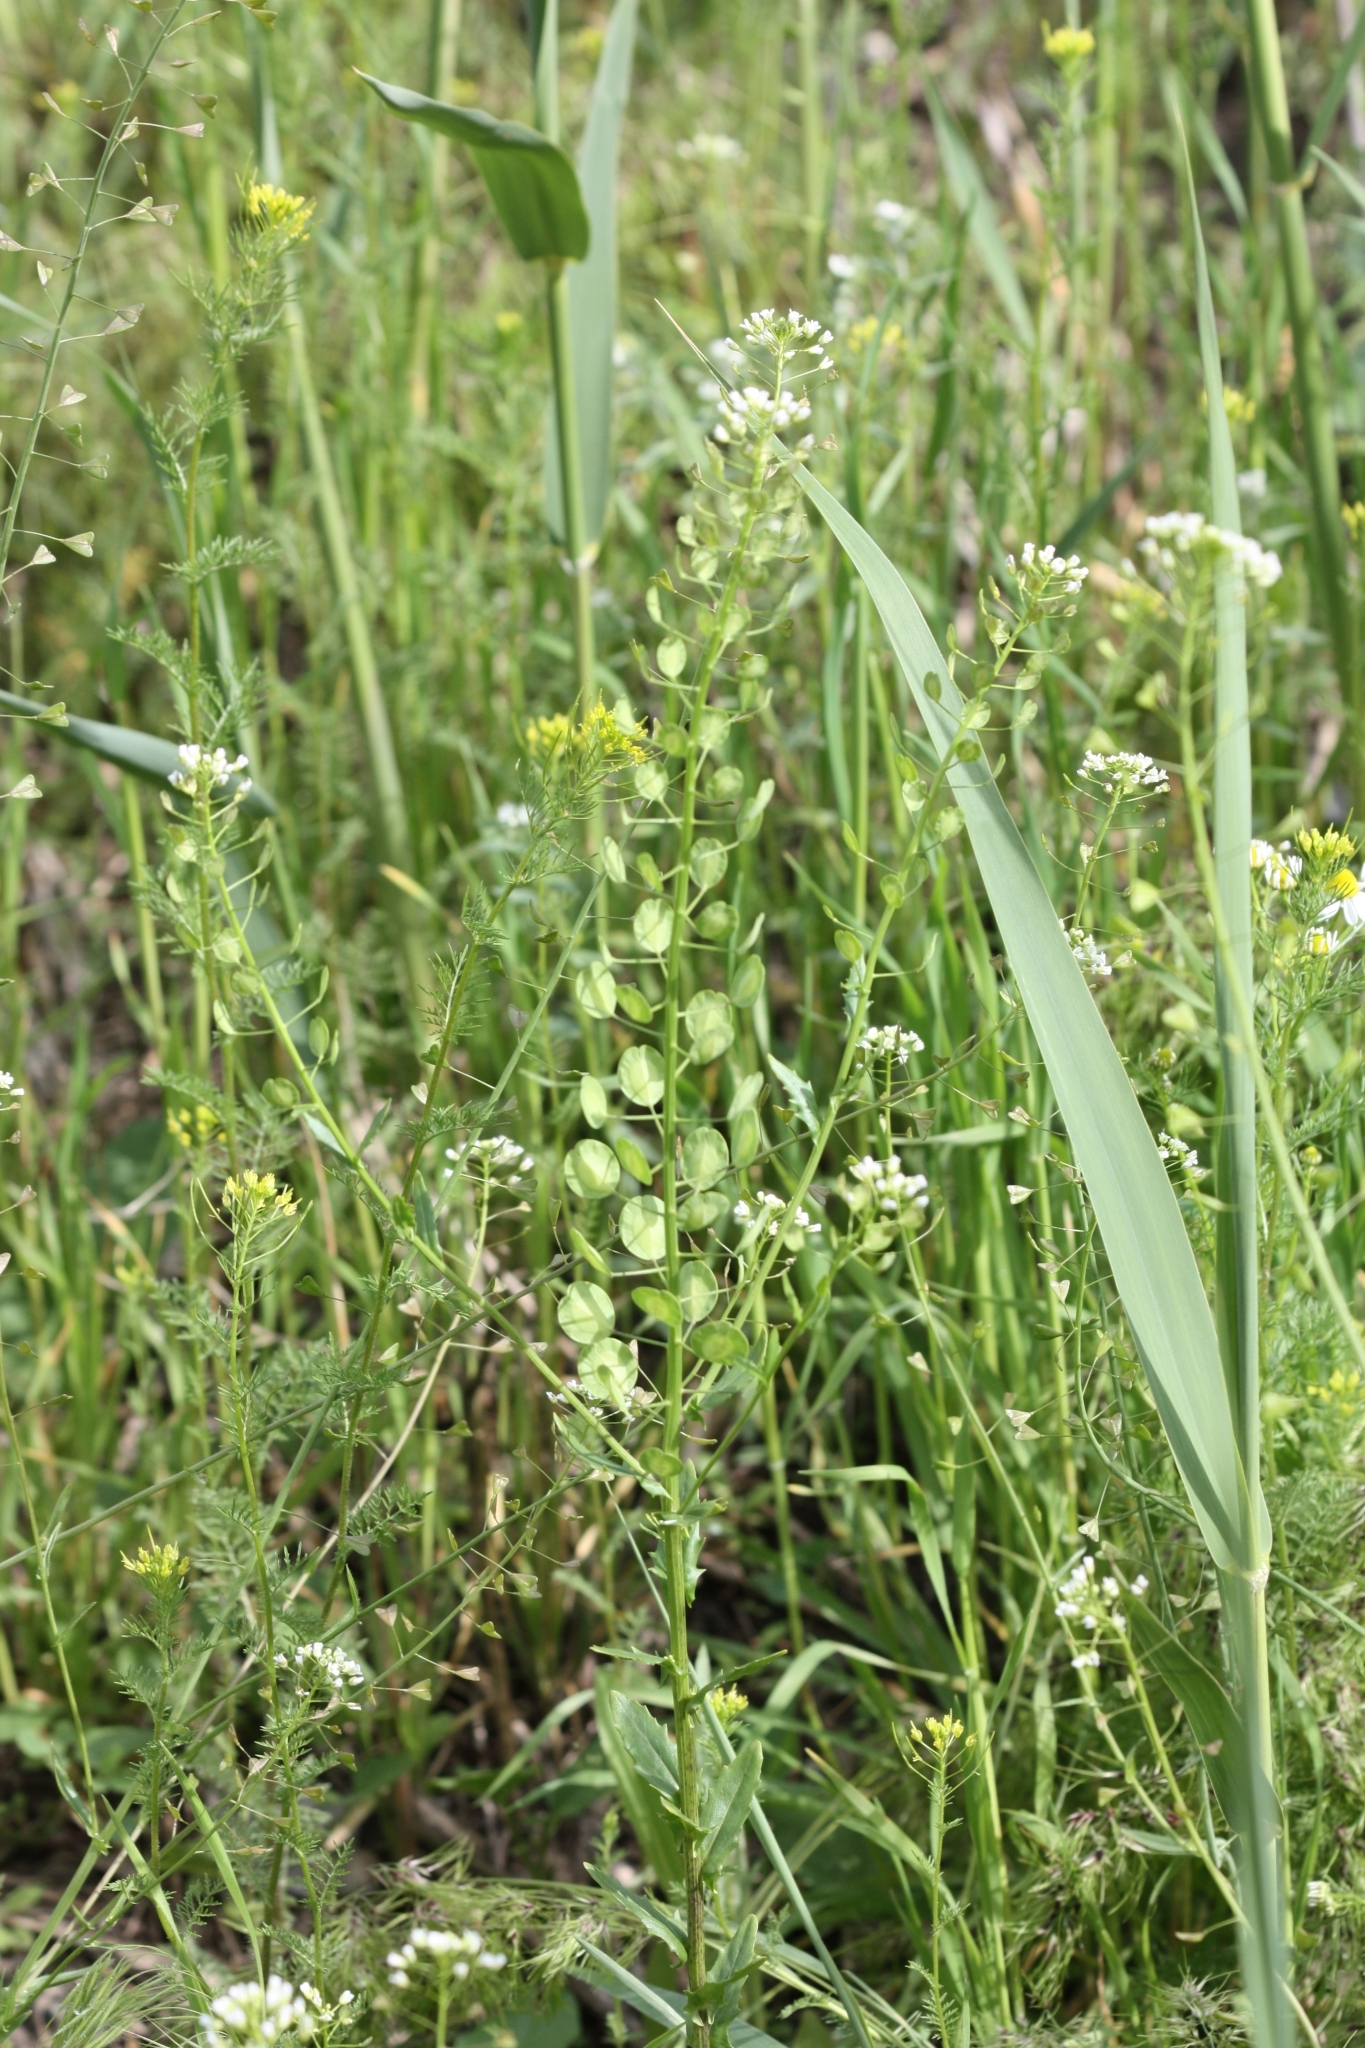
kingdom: Plantae
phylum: Tracheophyta
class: Magnoliopsida
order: Brassicales
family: Brassicaceae
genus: Thlaspi
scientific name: Thlaspi arvense
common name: Field pennycress
